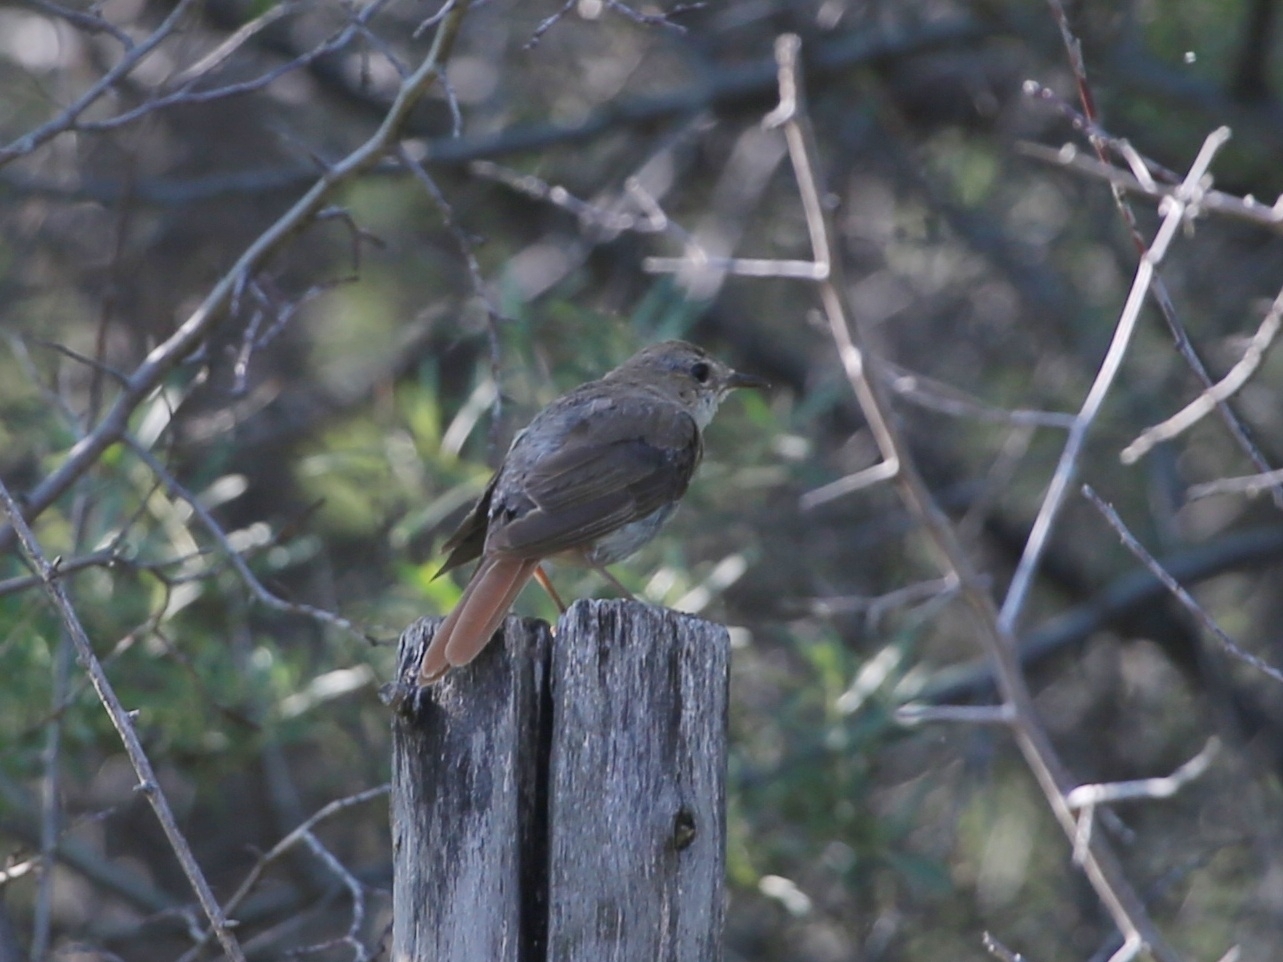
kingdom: Animalia
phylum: Chordata
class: Aves
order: Passeriformes
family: Muscicapidae
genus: Luscinia
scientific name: Luscinia megarhynchos
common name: Common nightingale
